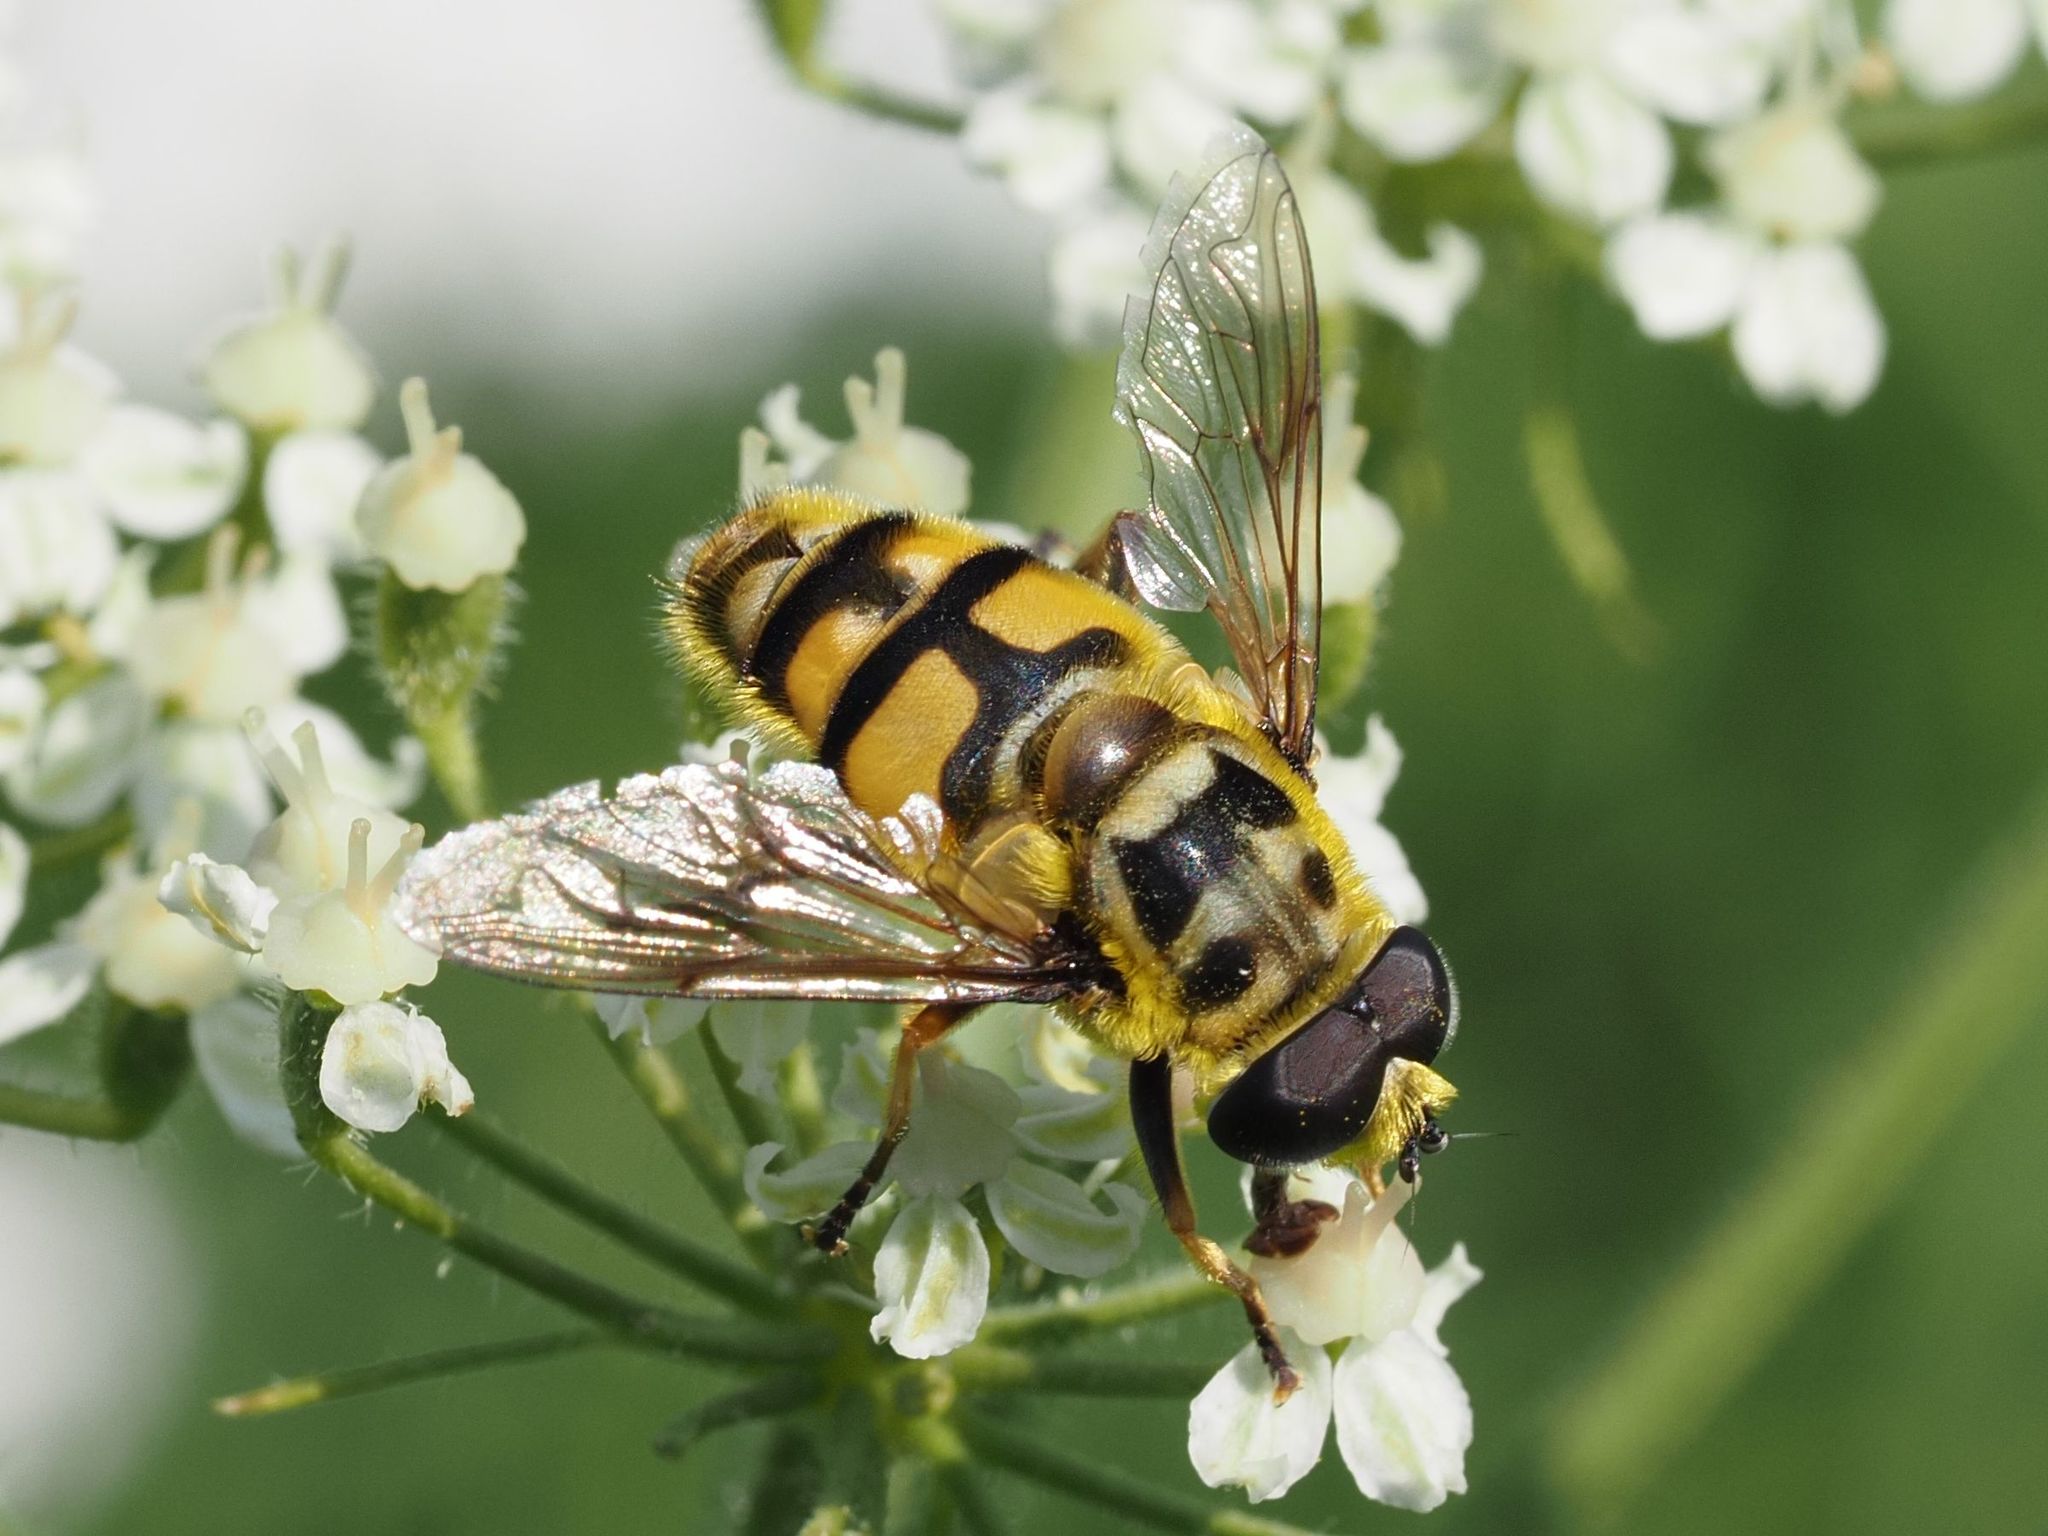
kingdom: Animalia
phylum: Arthropoda
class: Insecta
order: Diptera
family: Syrphidae
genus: Myathropa
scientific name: Myathropa florea
